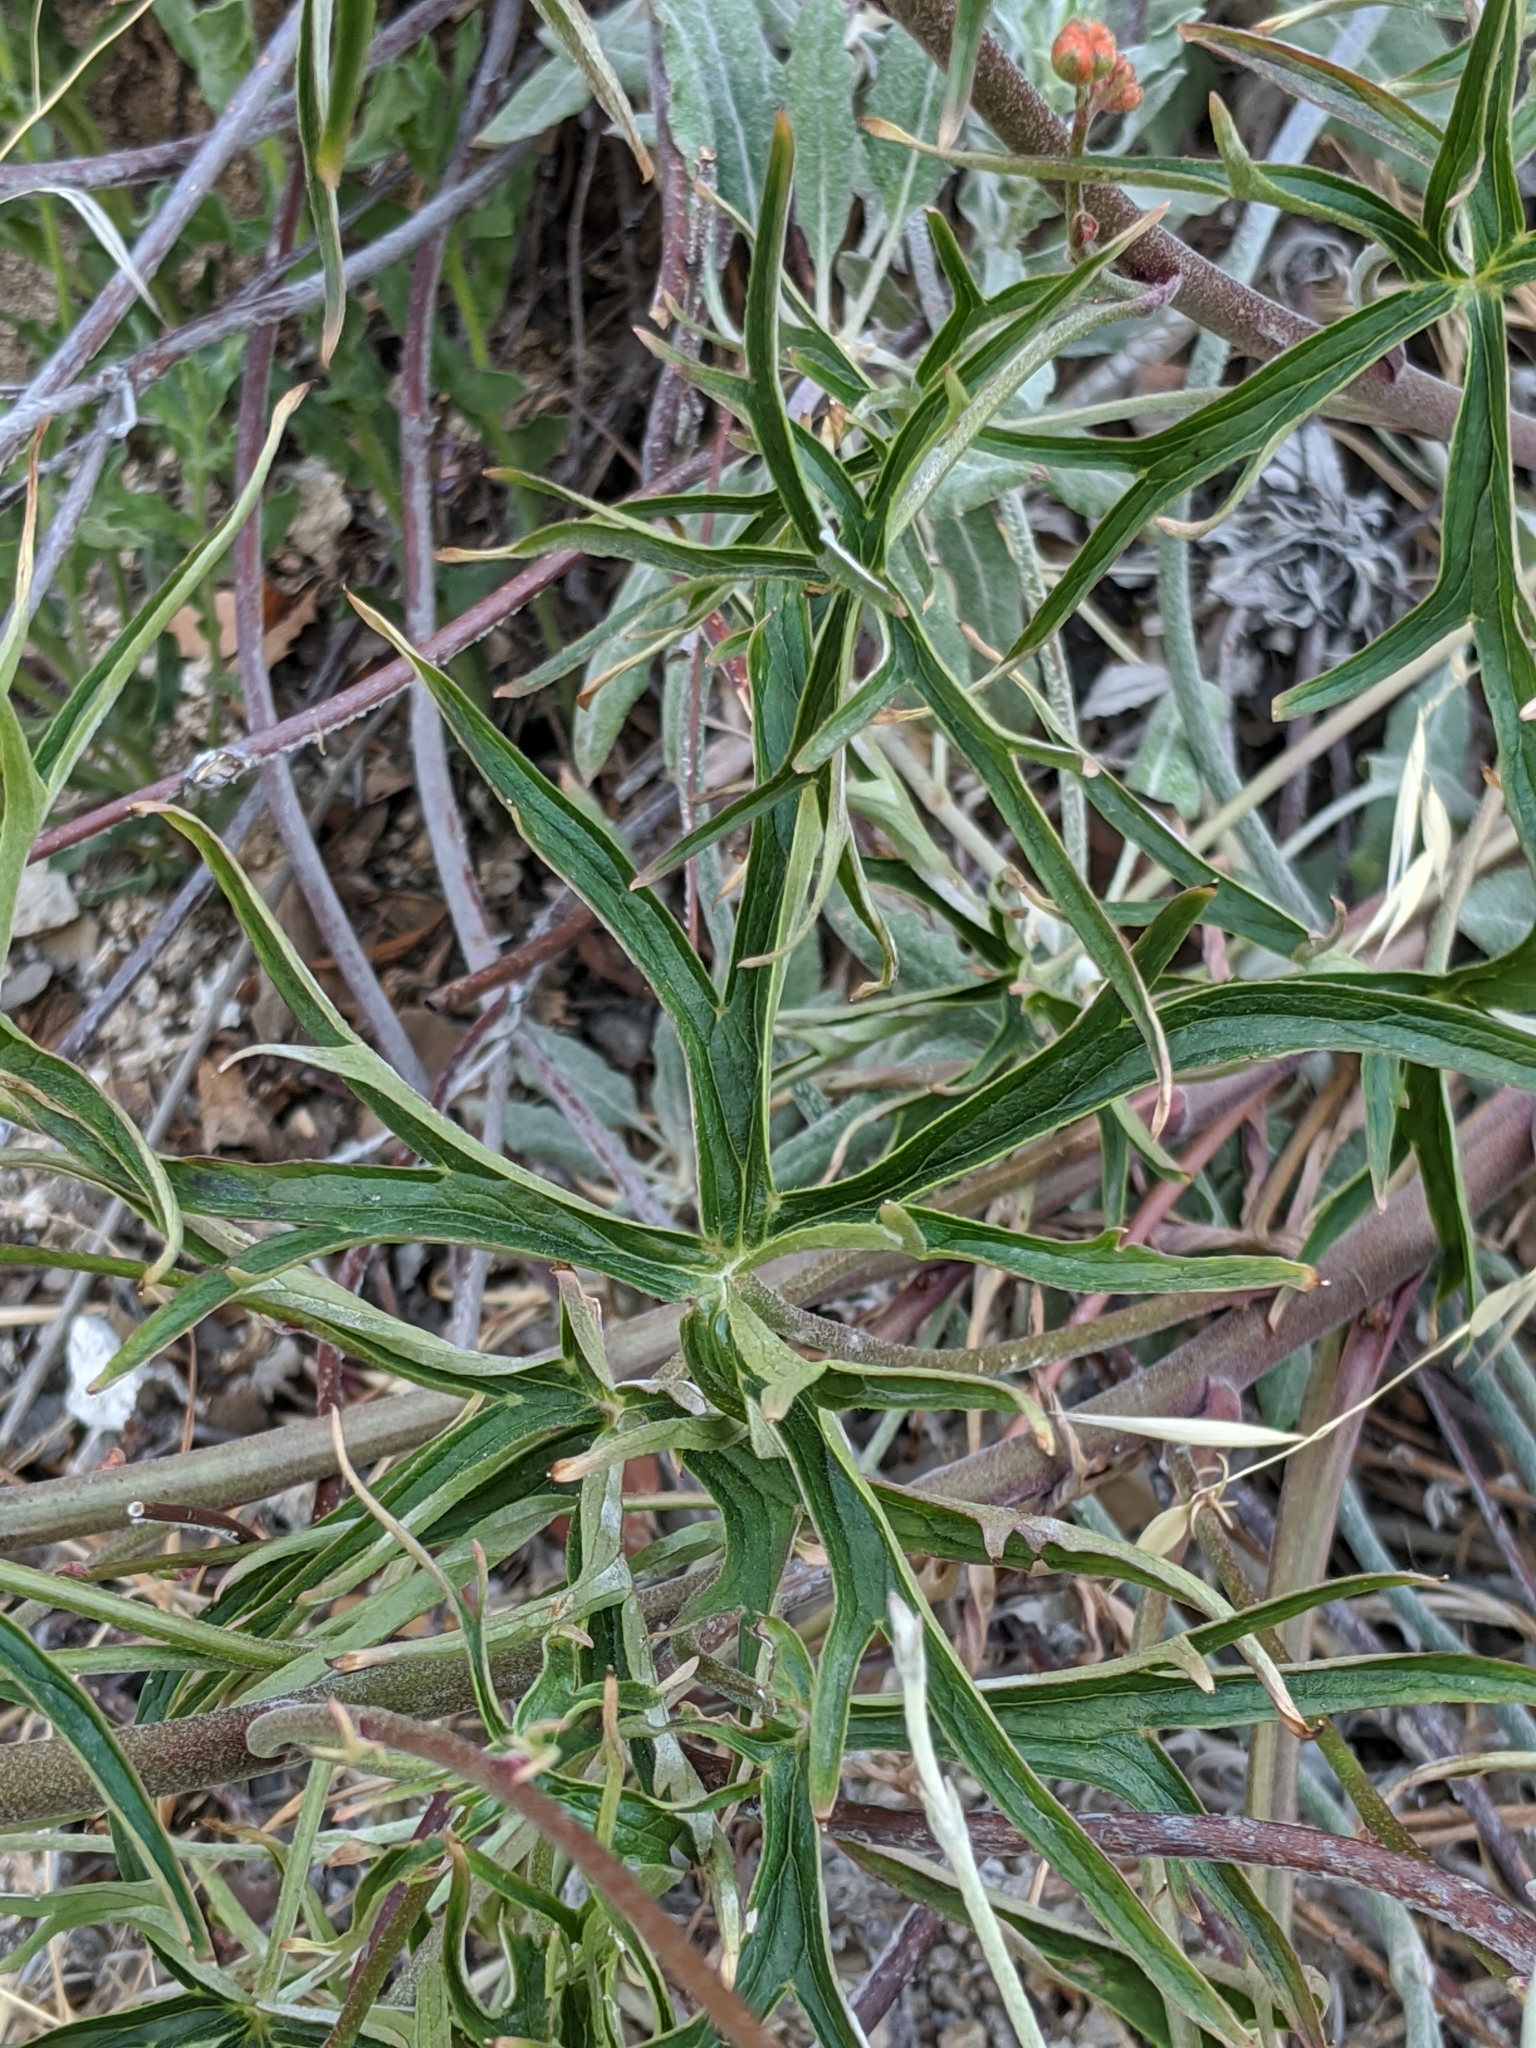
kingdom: Plantae
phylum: Tracheophyta
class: Magnoliopsida
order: Ranunculales
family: Ranunculaceae
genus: Delphinium
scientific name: Delphinium cardinale
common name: Scarlet larkspur
